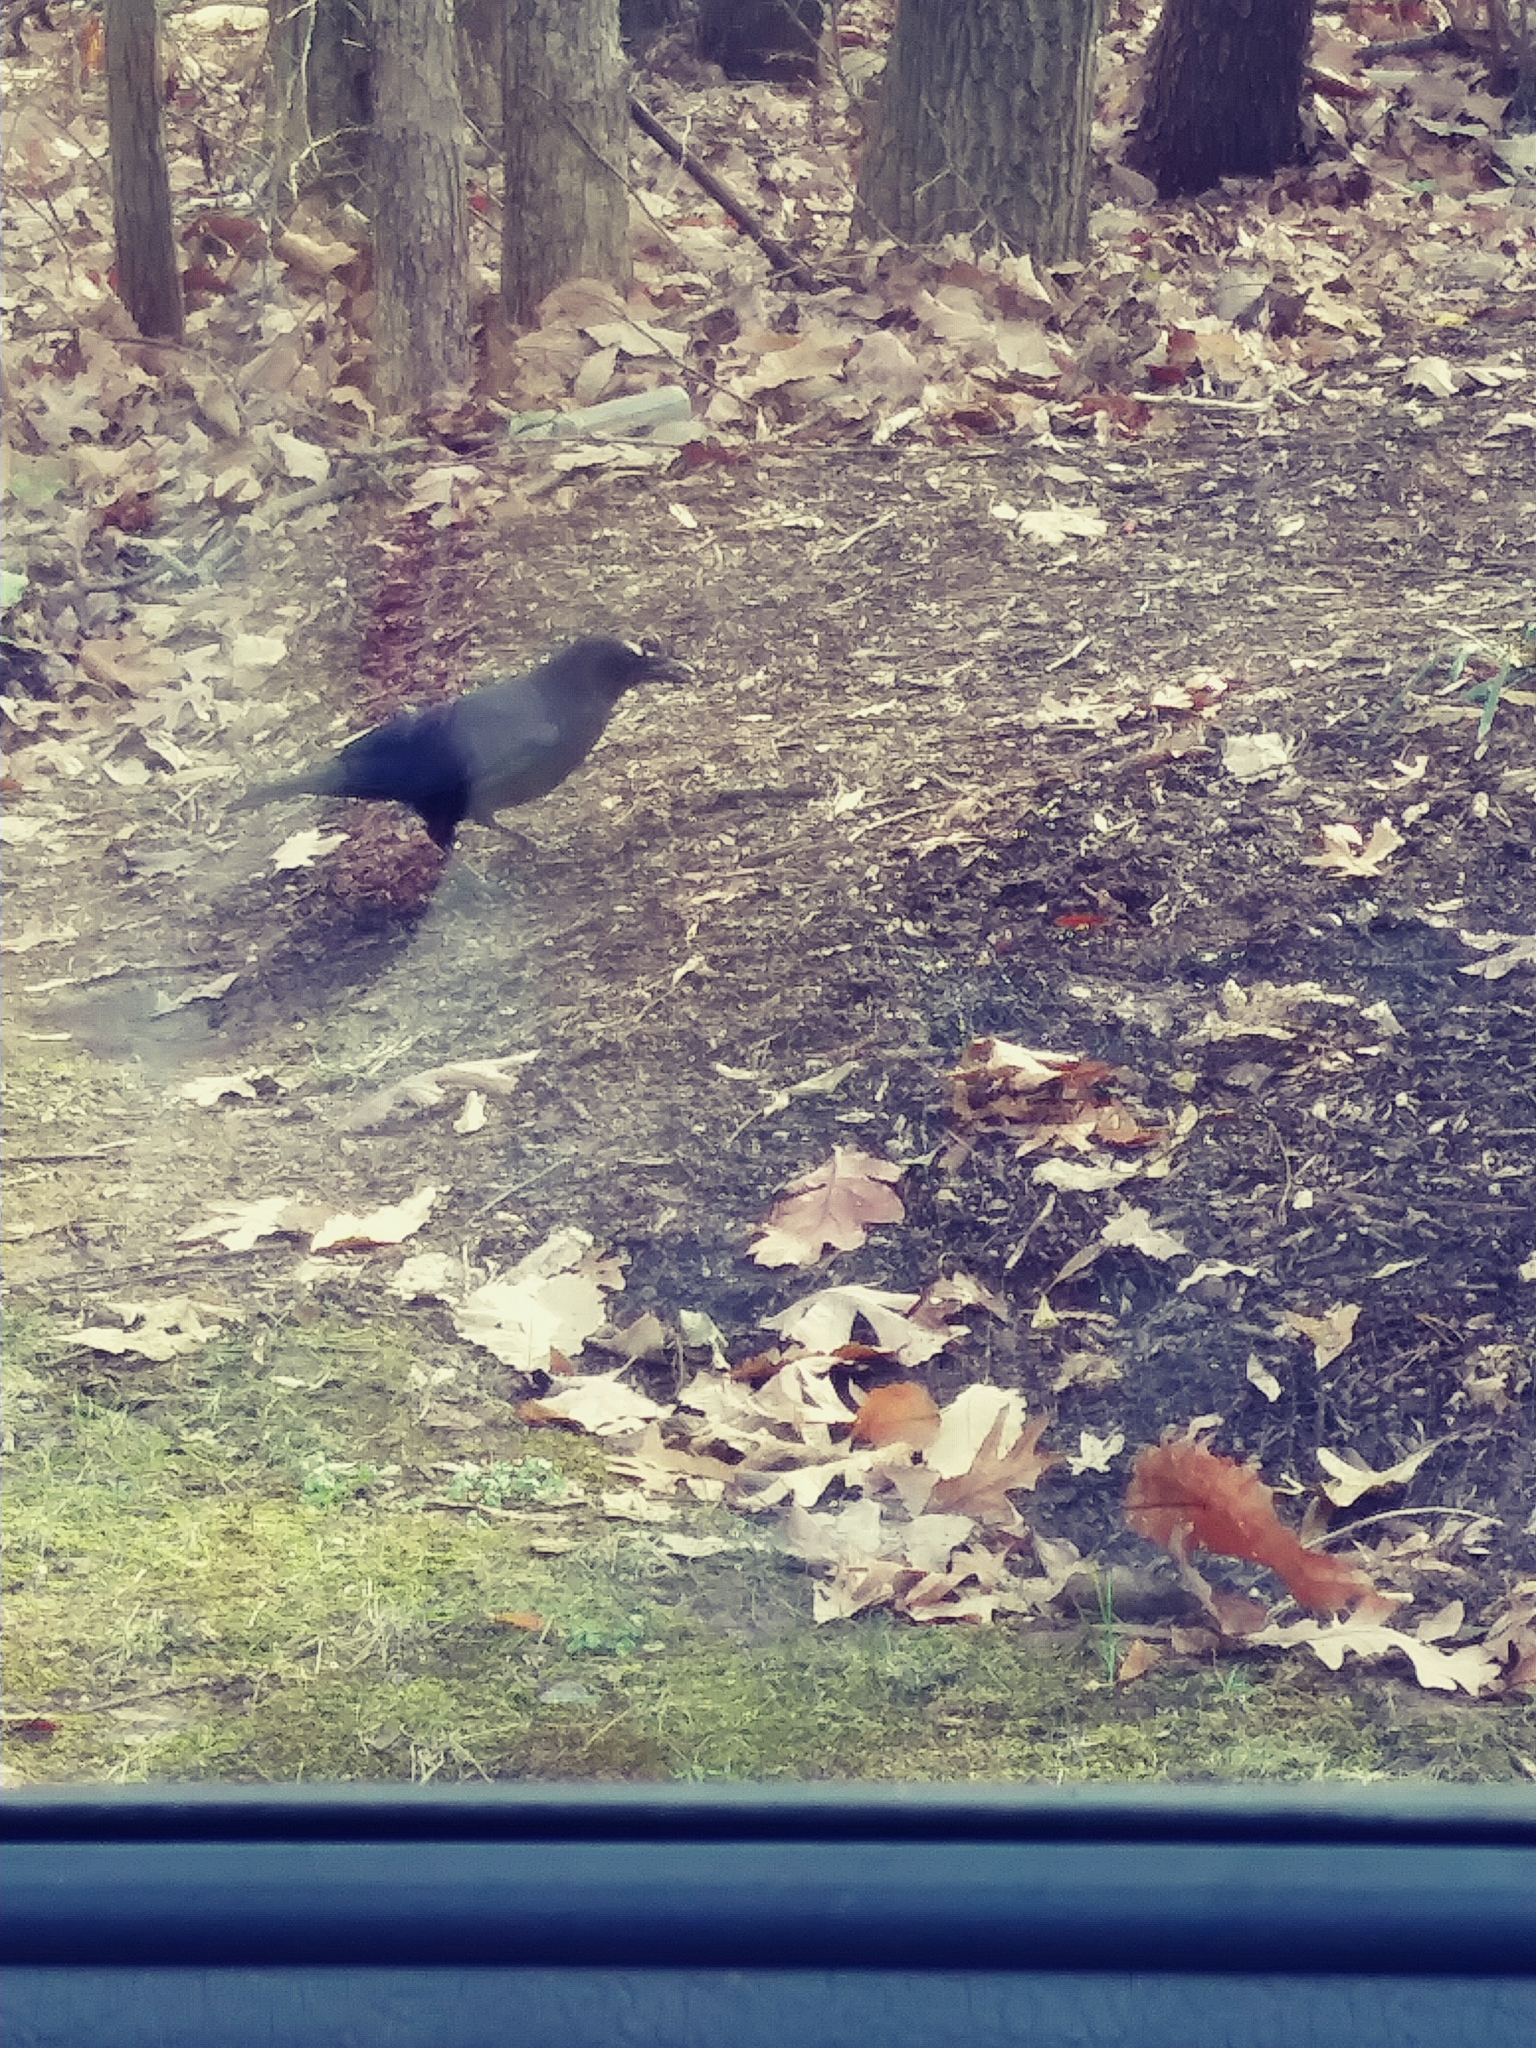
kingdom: Animalia
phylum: Chordata
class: Aves
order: Passeriformes
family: Corvidae
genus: Corvus
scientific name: Corvus brachyrhynchos
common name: American crow
